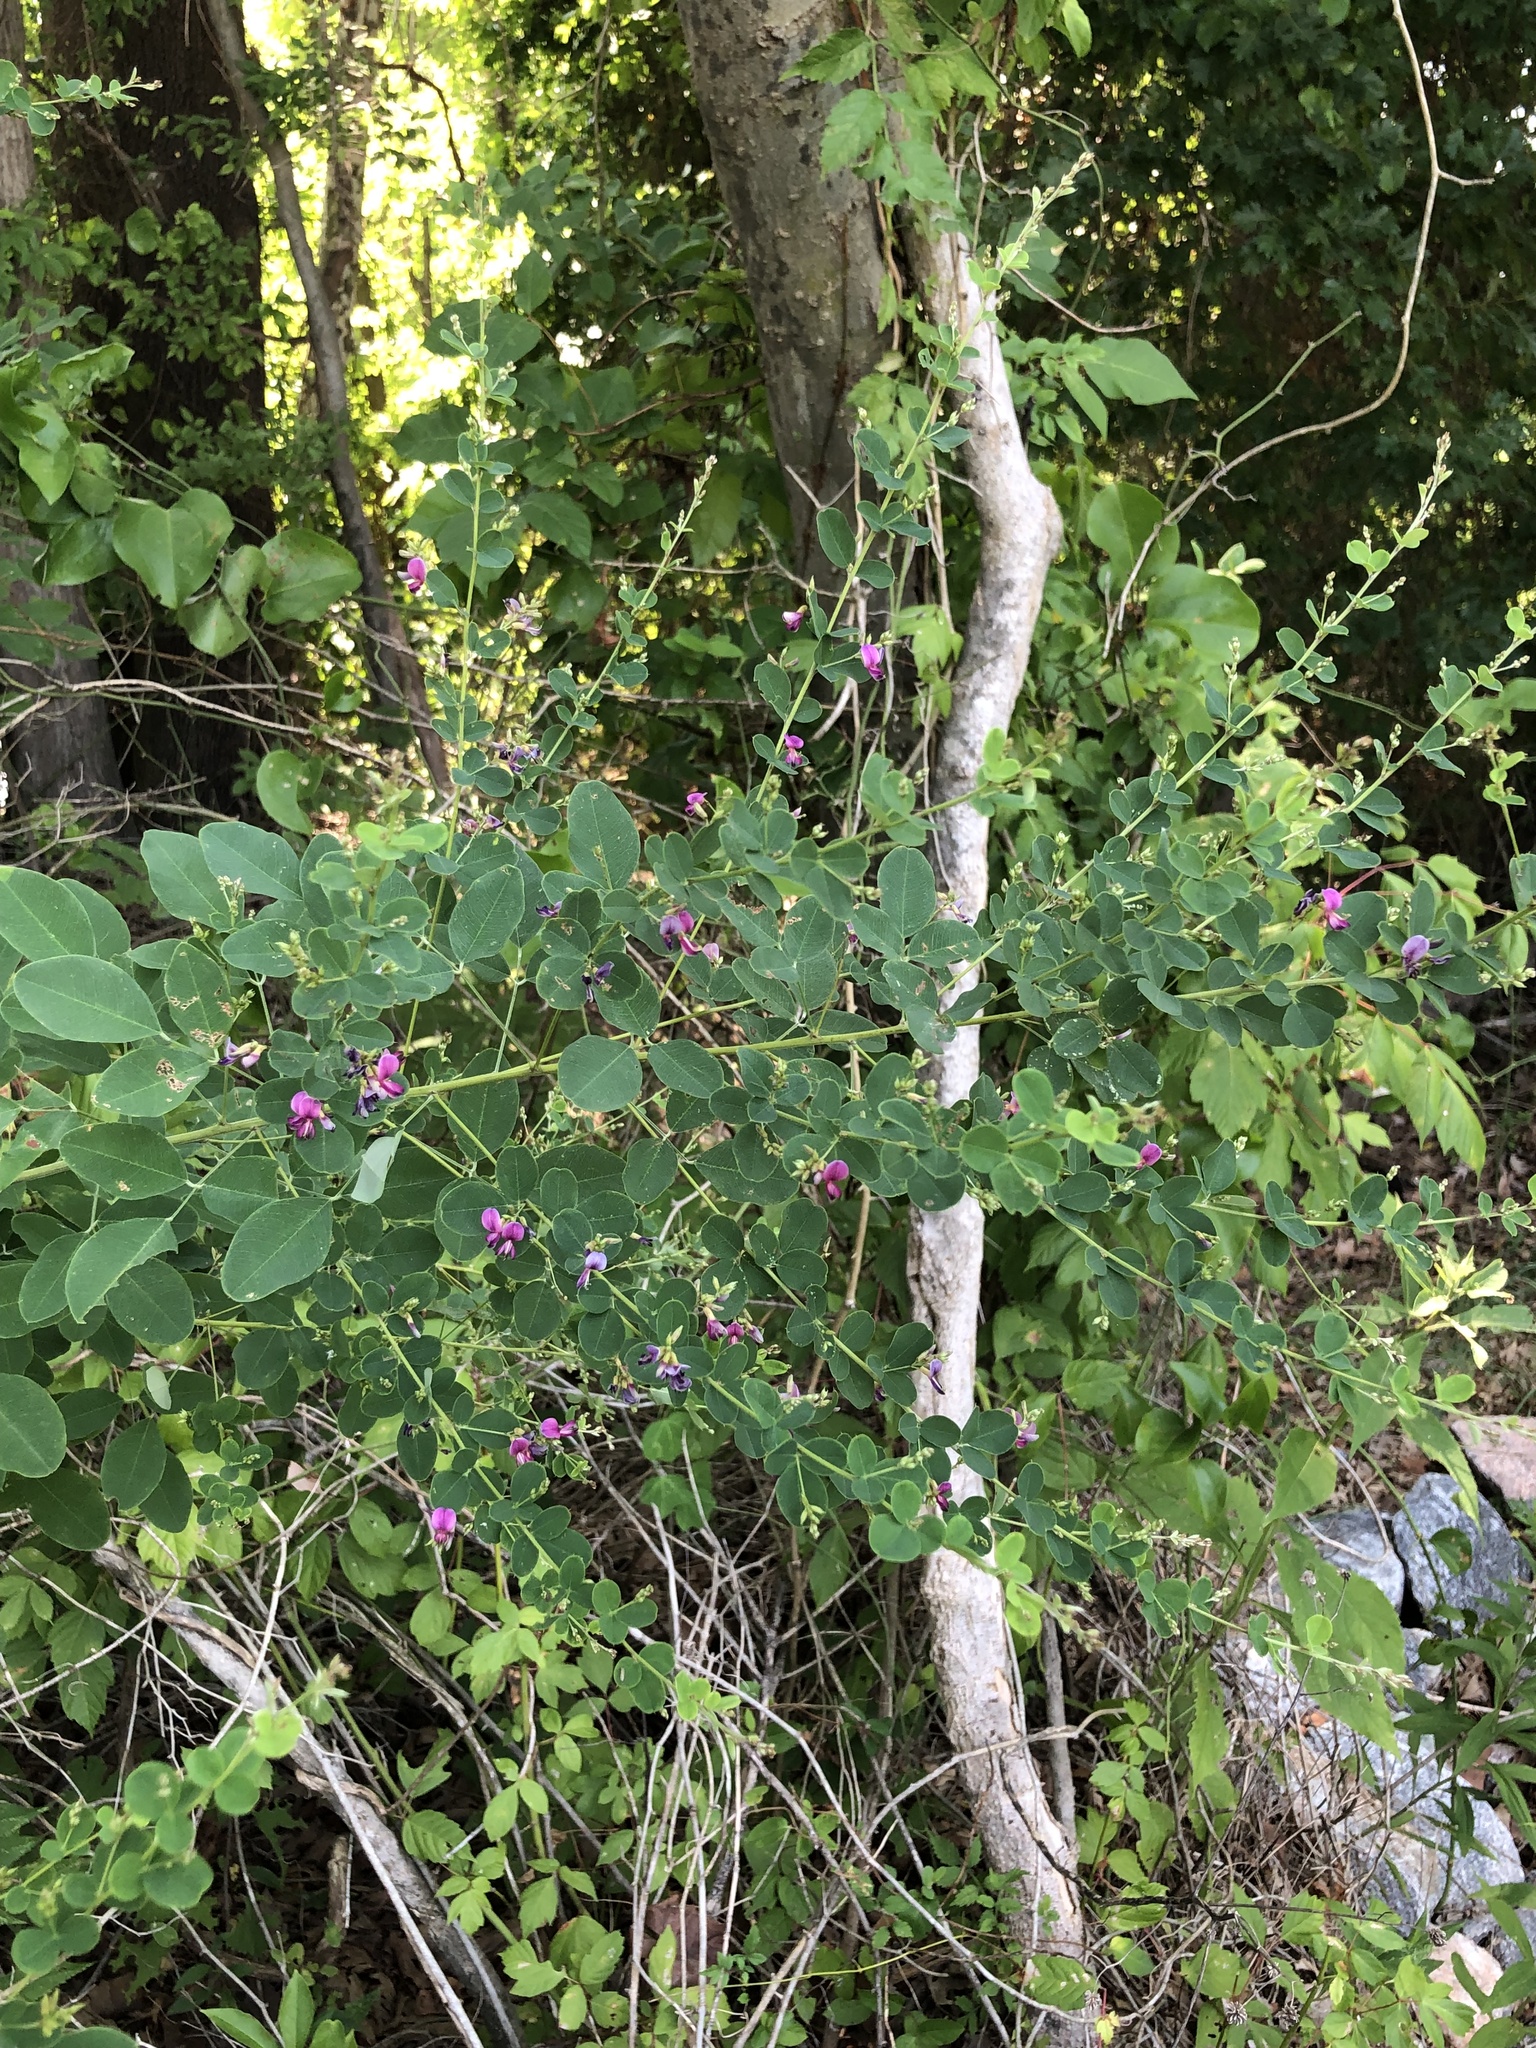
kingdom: Plantae
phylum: Tracheophyta
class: Magnoliopsida
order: Fabales
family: Fabaceae
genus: Lespedeza
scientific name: Lespedeza bicolor
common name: Shrub lespedeza
